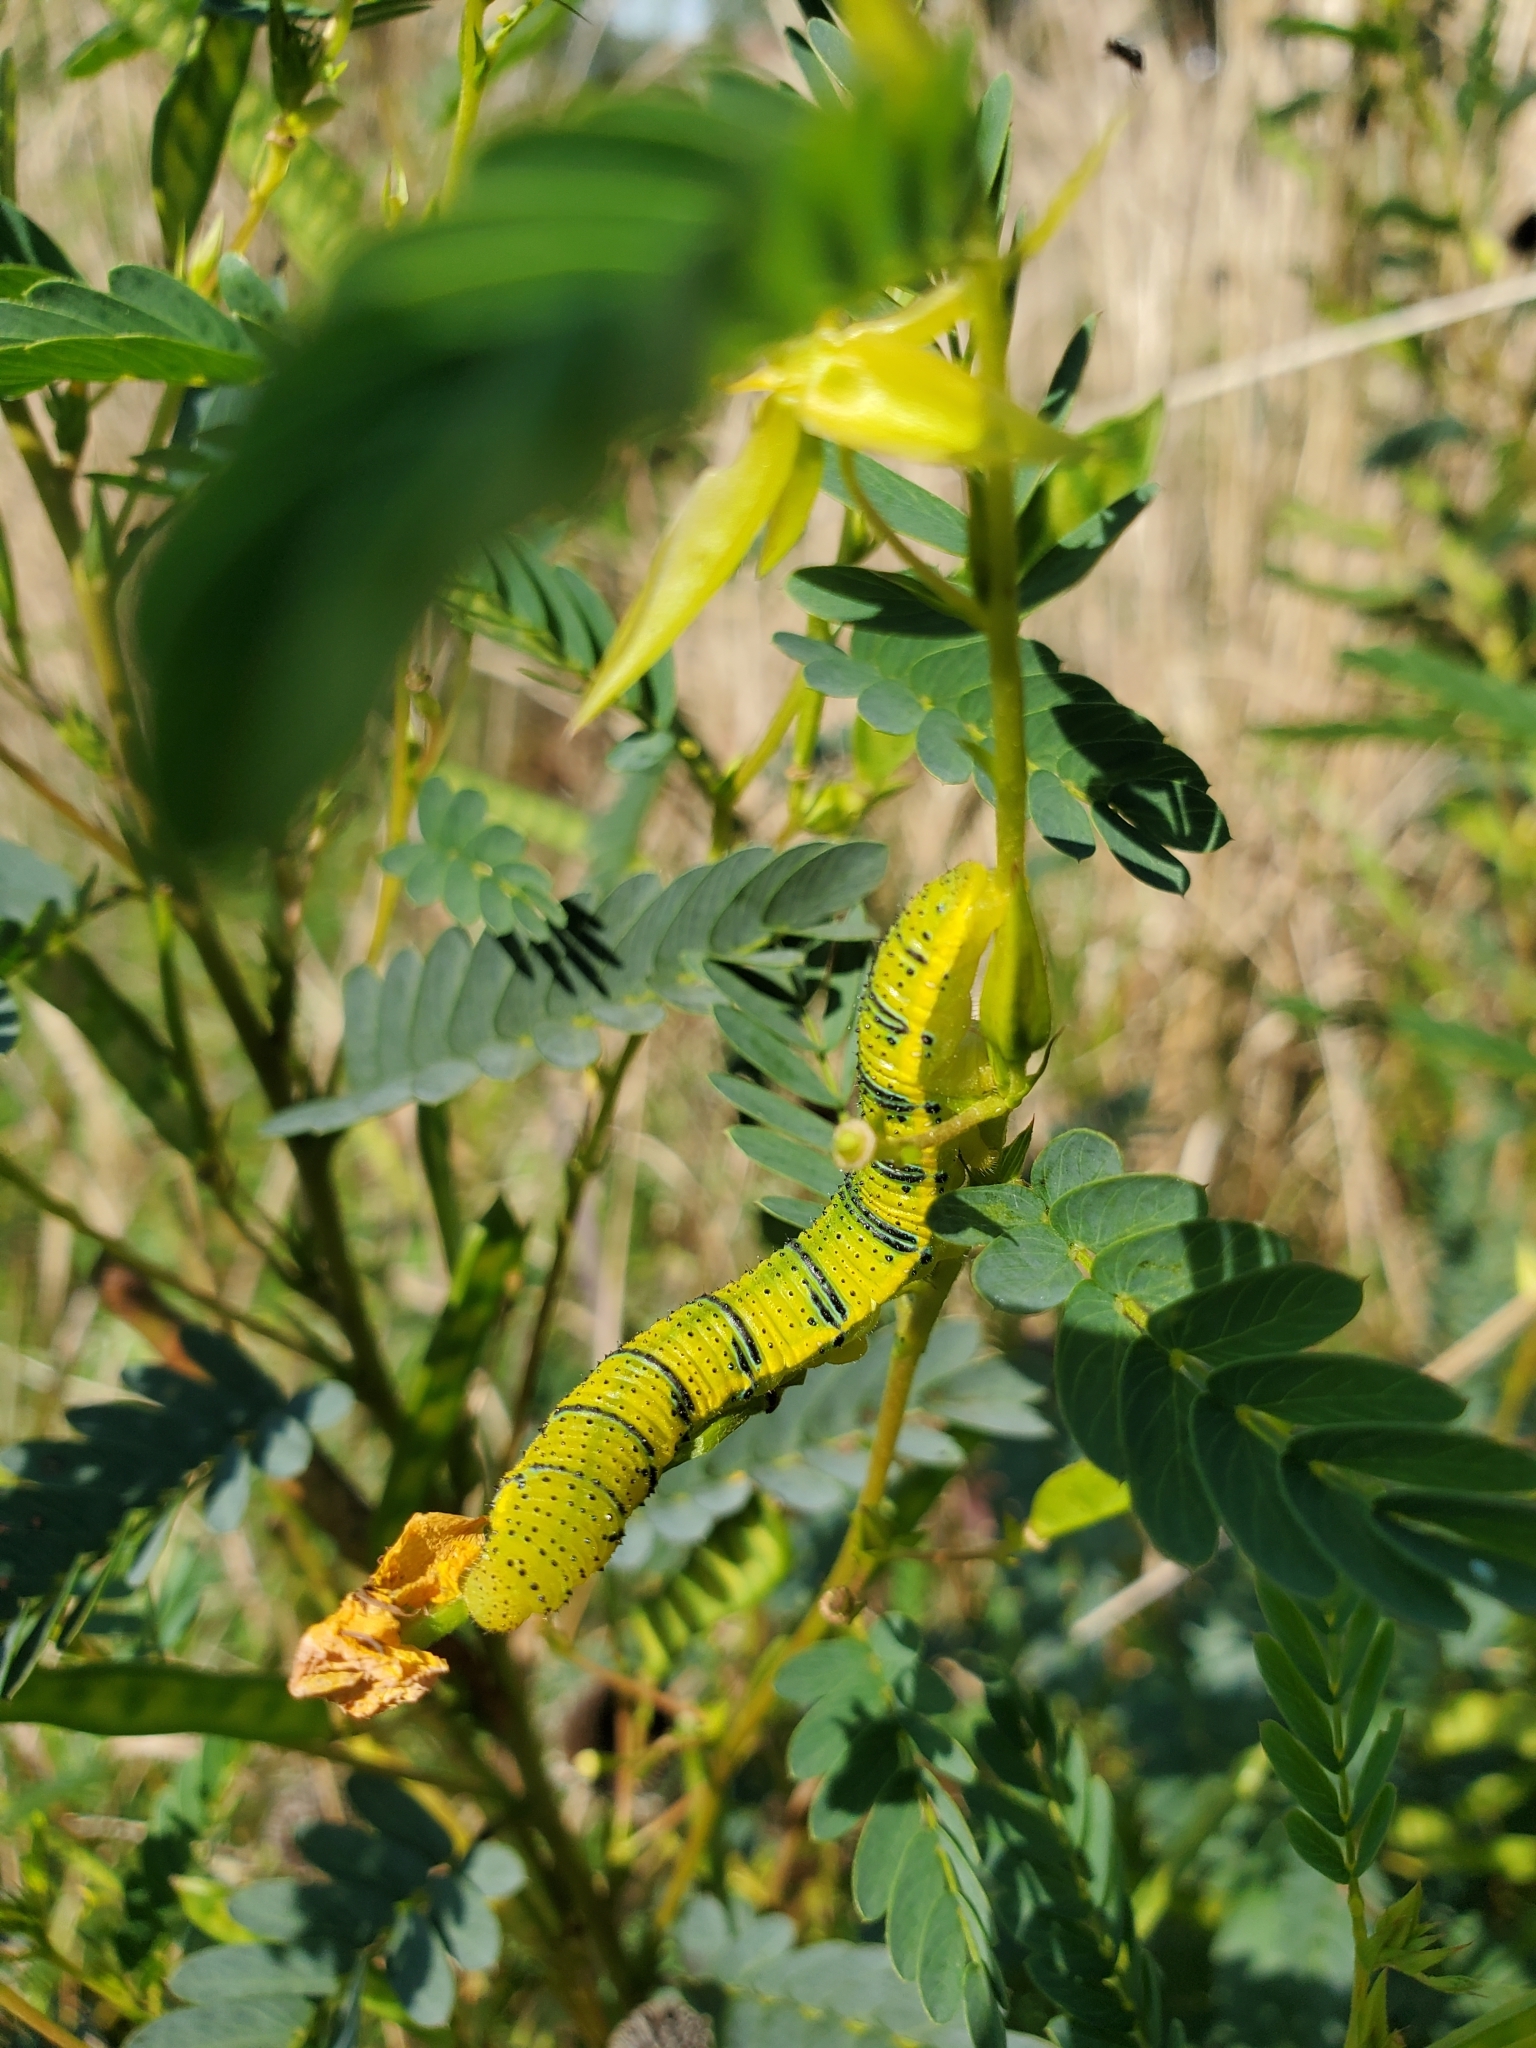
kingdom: Animalia
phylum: Arthropoda
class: Insecta
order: Lepidoptera
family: Pieridae
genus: Phoebis
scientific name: Phoebis sennae
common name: Cloudless sulphur
